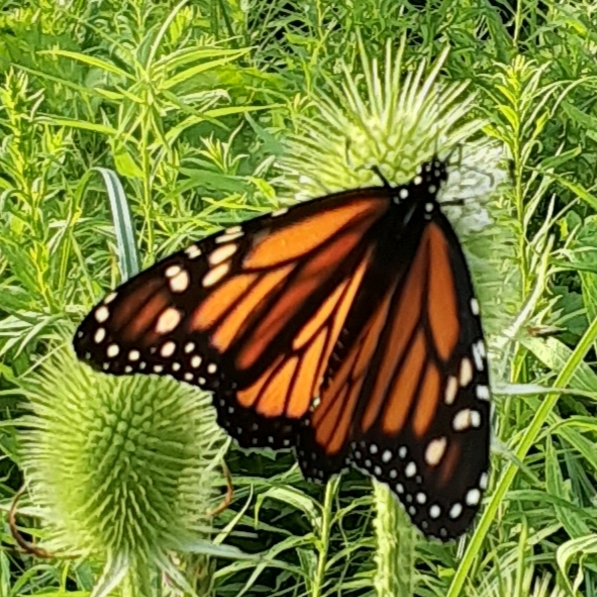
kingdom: Animalia
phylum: Arthropoda
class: Insecta
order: Lepidoptera
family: Nymphalidae
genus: Danaus
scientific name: Danaus plexippus
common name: Monarch
